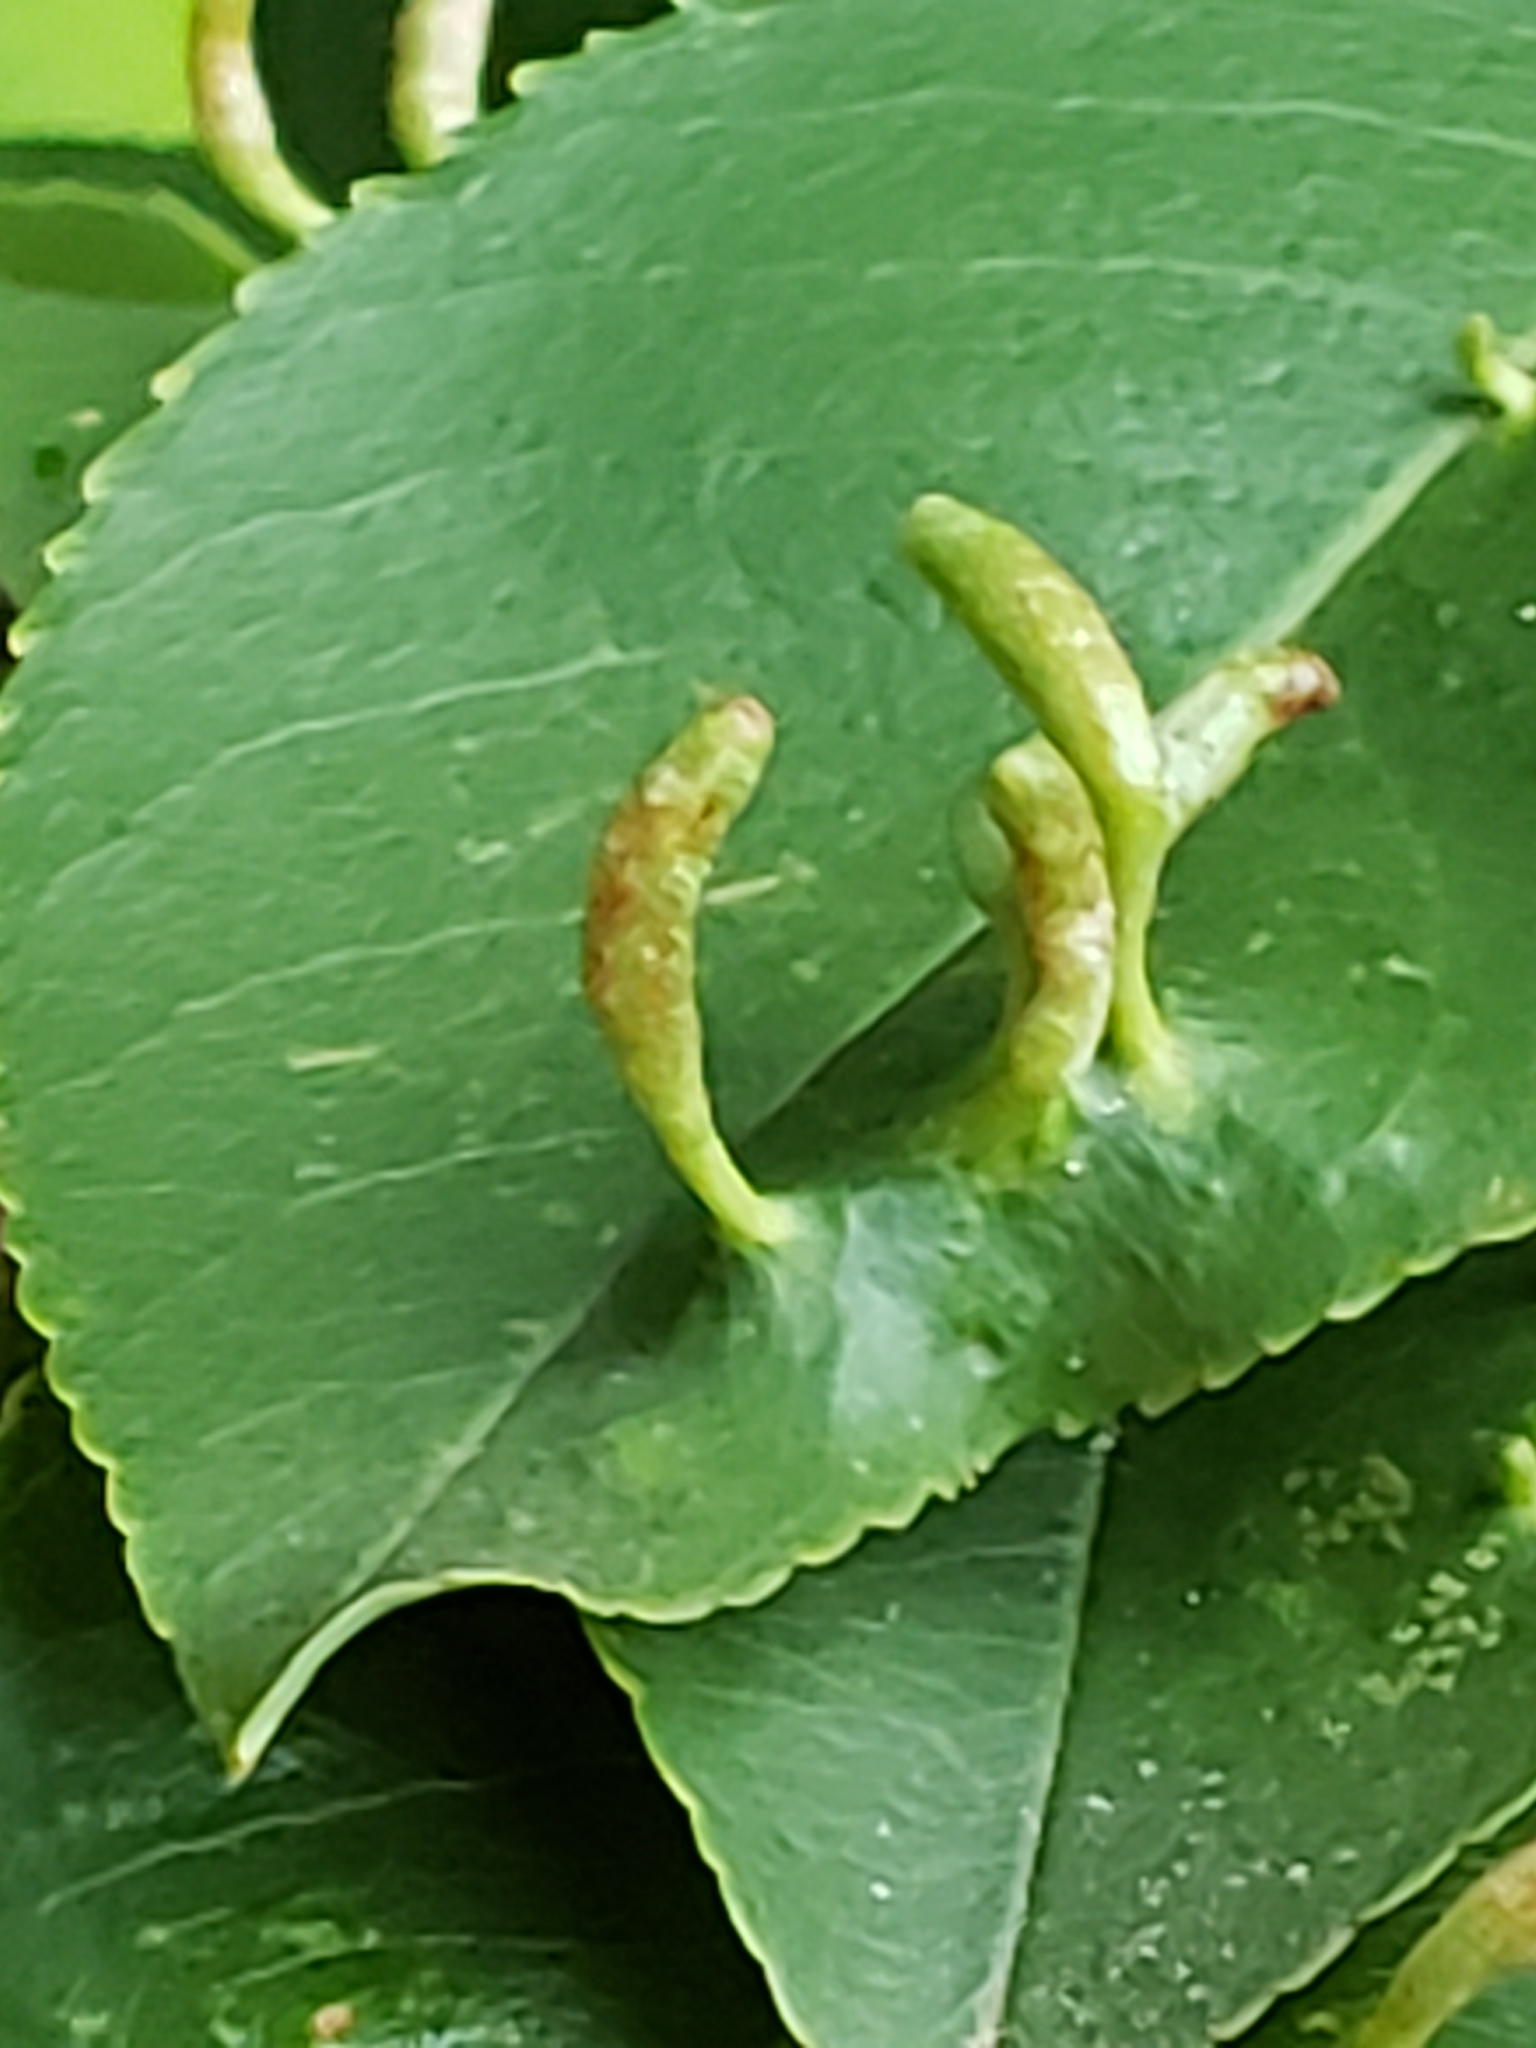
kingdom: Animalia
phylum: Arthropoda
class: Arachnida
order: Trombidiformes
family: Eriophyidae
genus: Eriophyes
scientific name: Eriophyes
